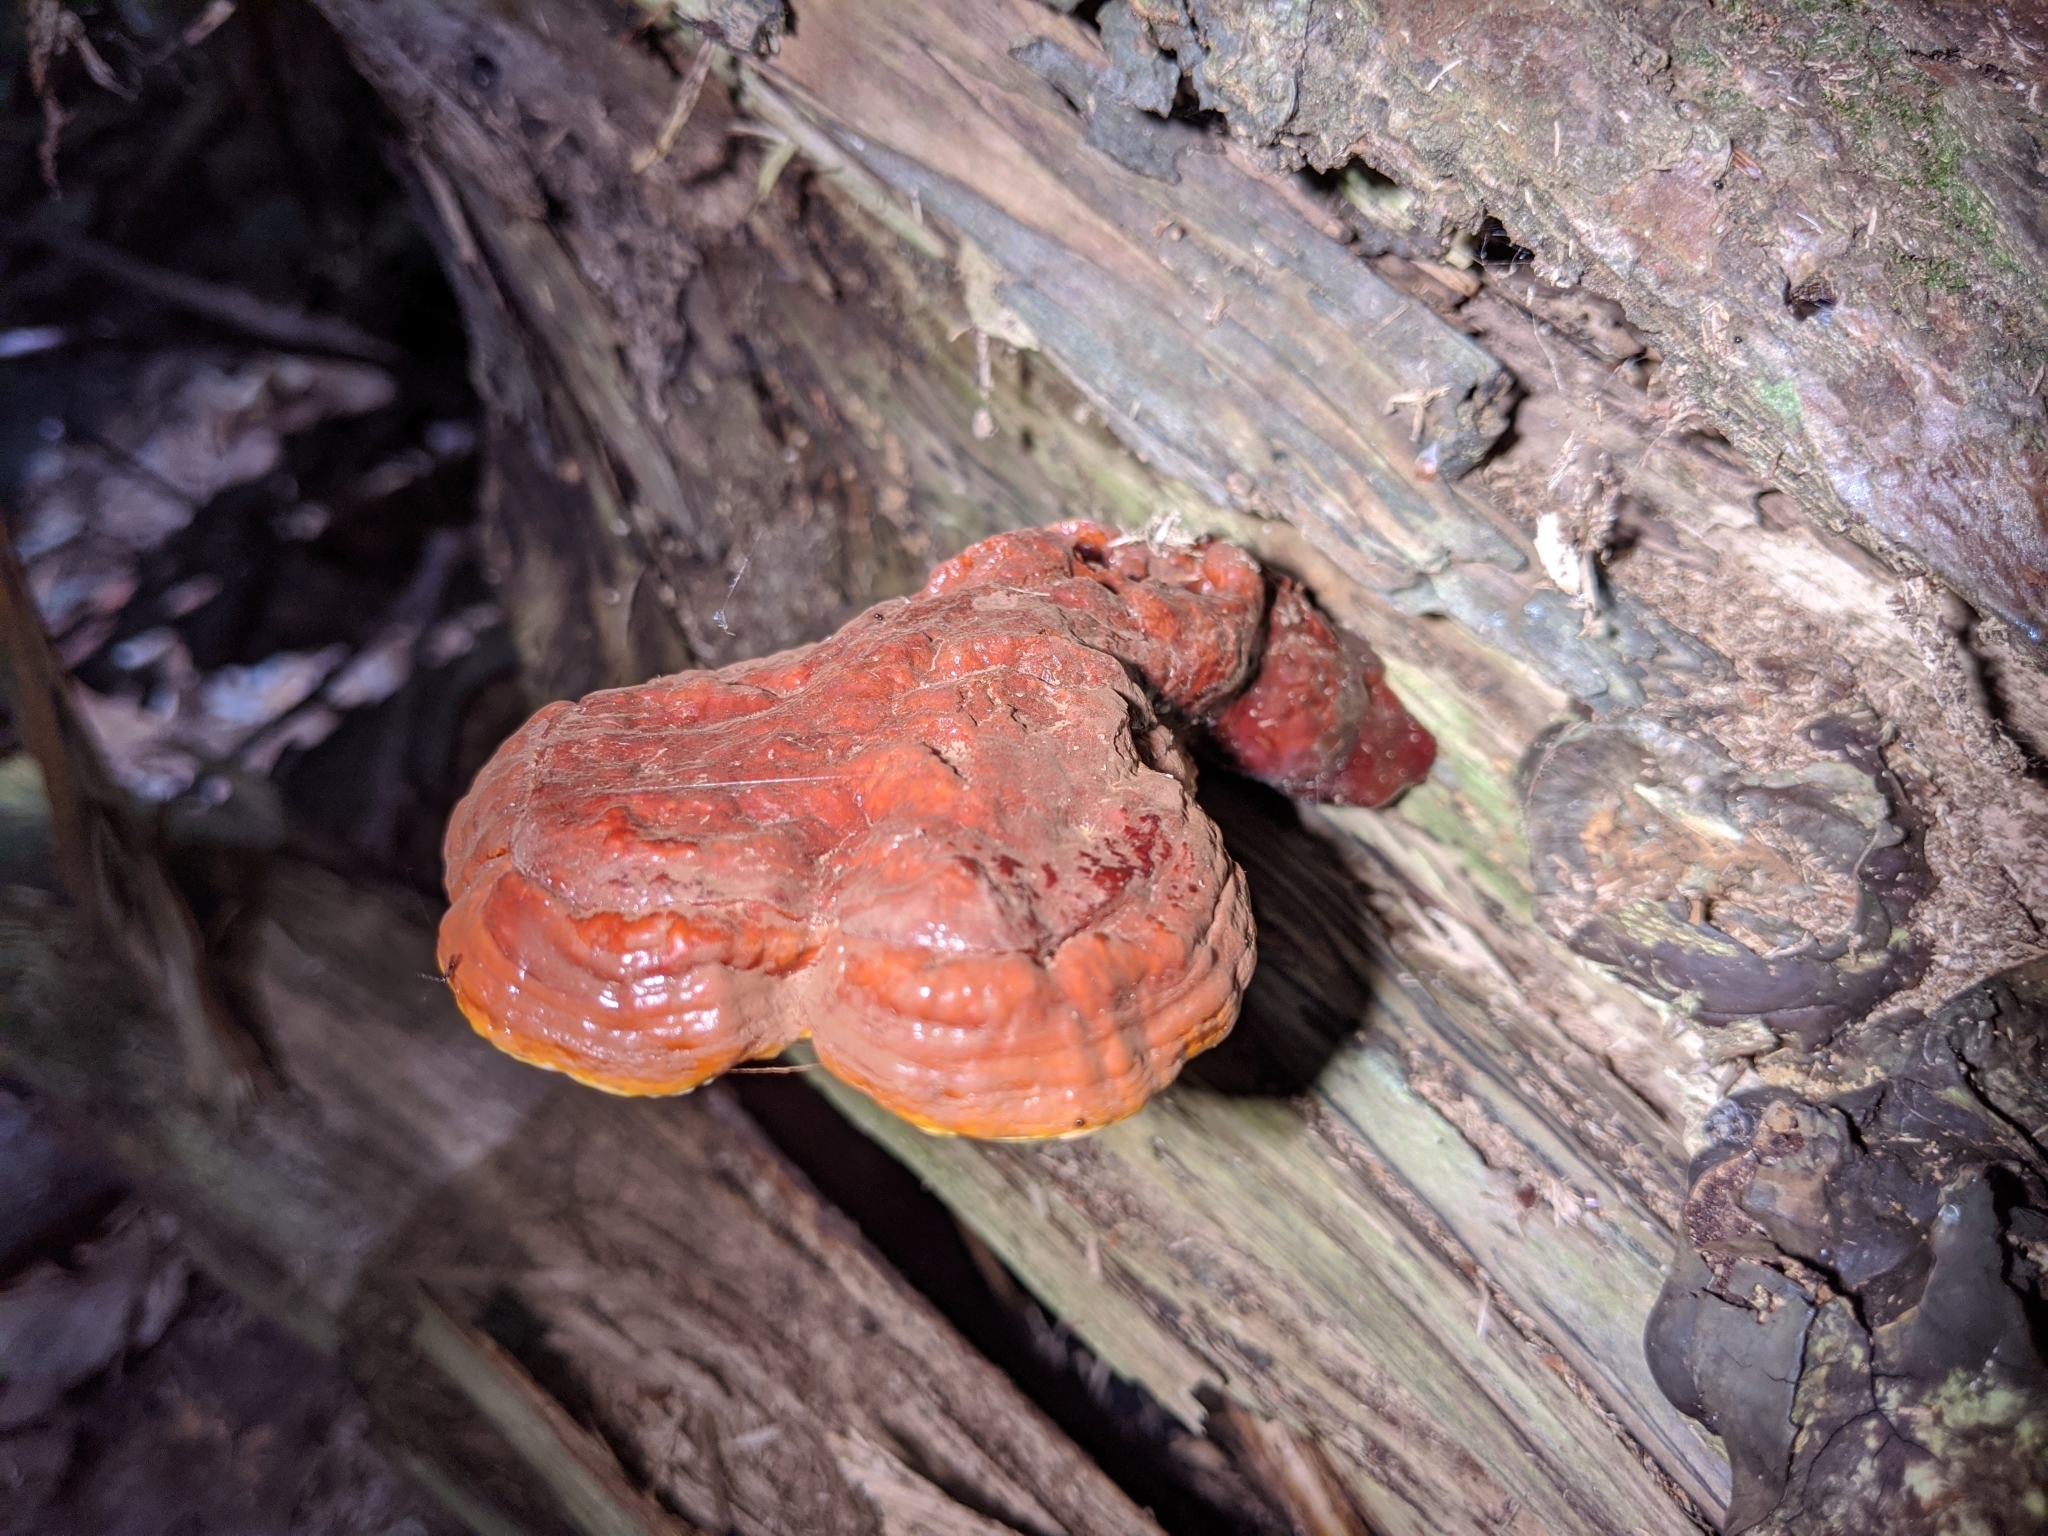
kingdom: Fungi
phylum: Basidiomycota
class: Agaricomycetes
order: Polyporales
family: Polyporaceae
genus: Ganoderma
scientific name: Ganoderma tsugae
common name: Hemlock varnish shelf
